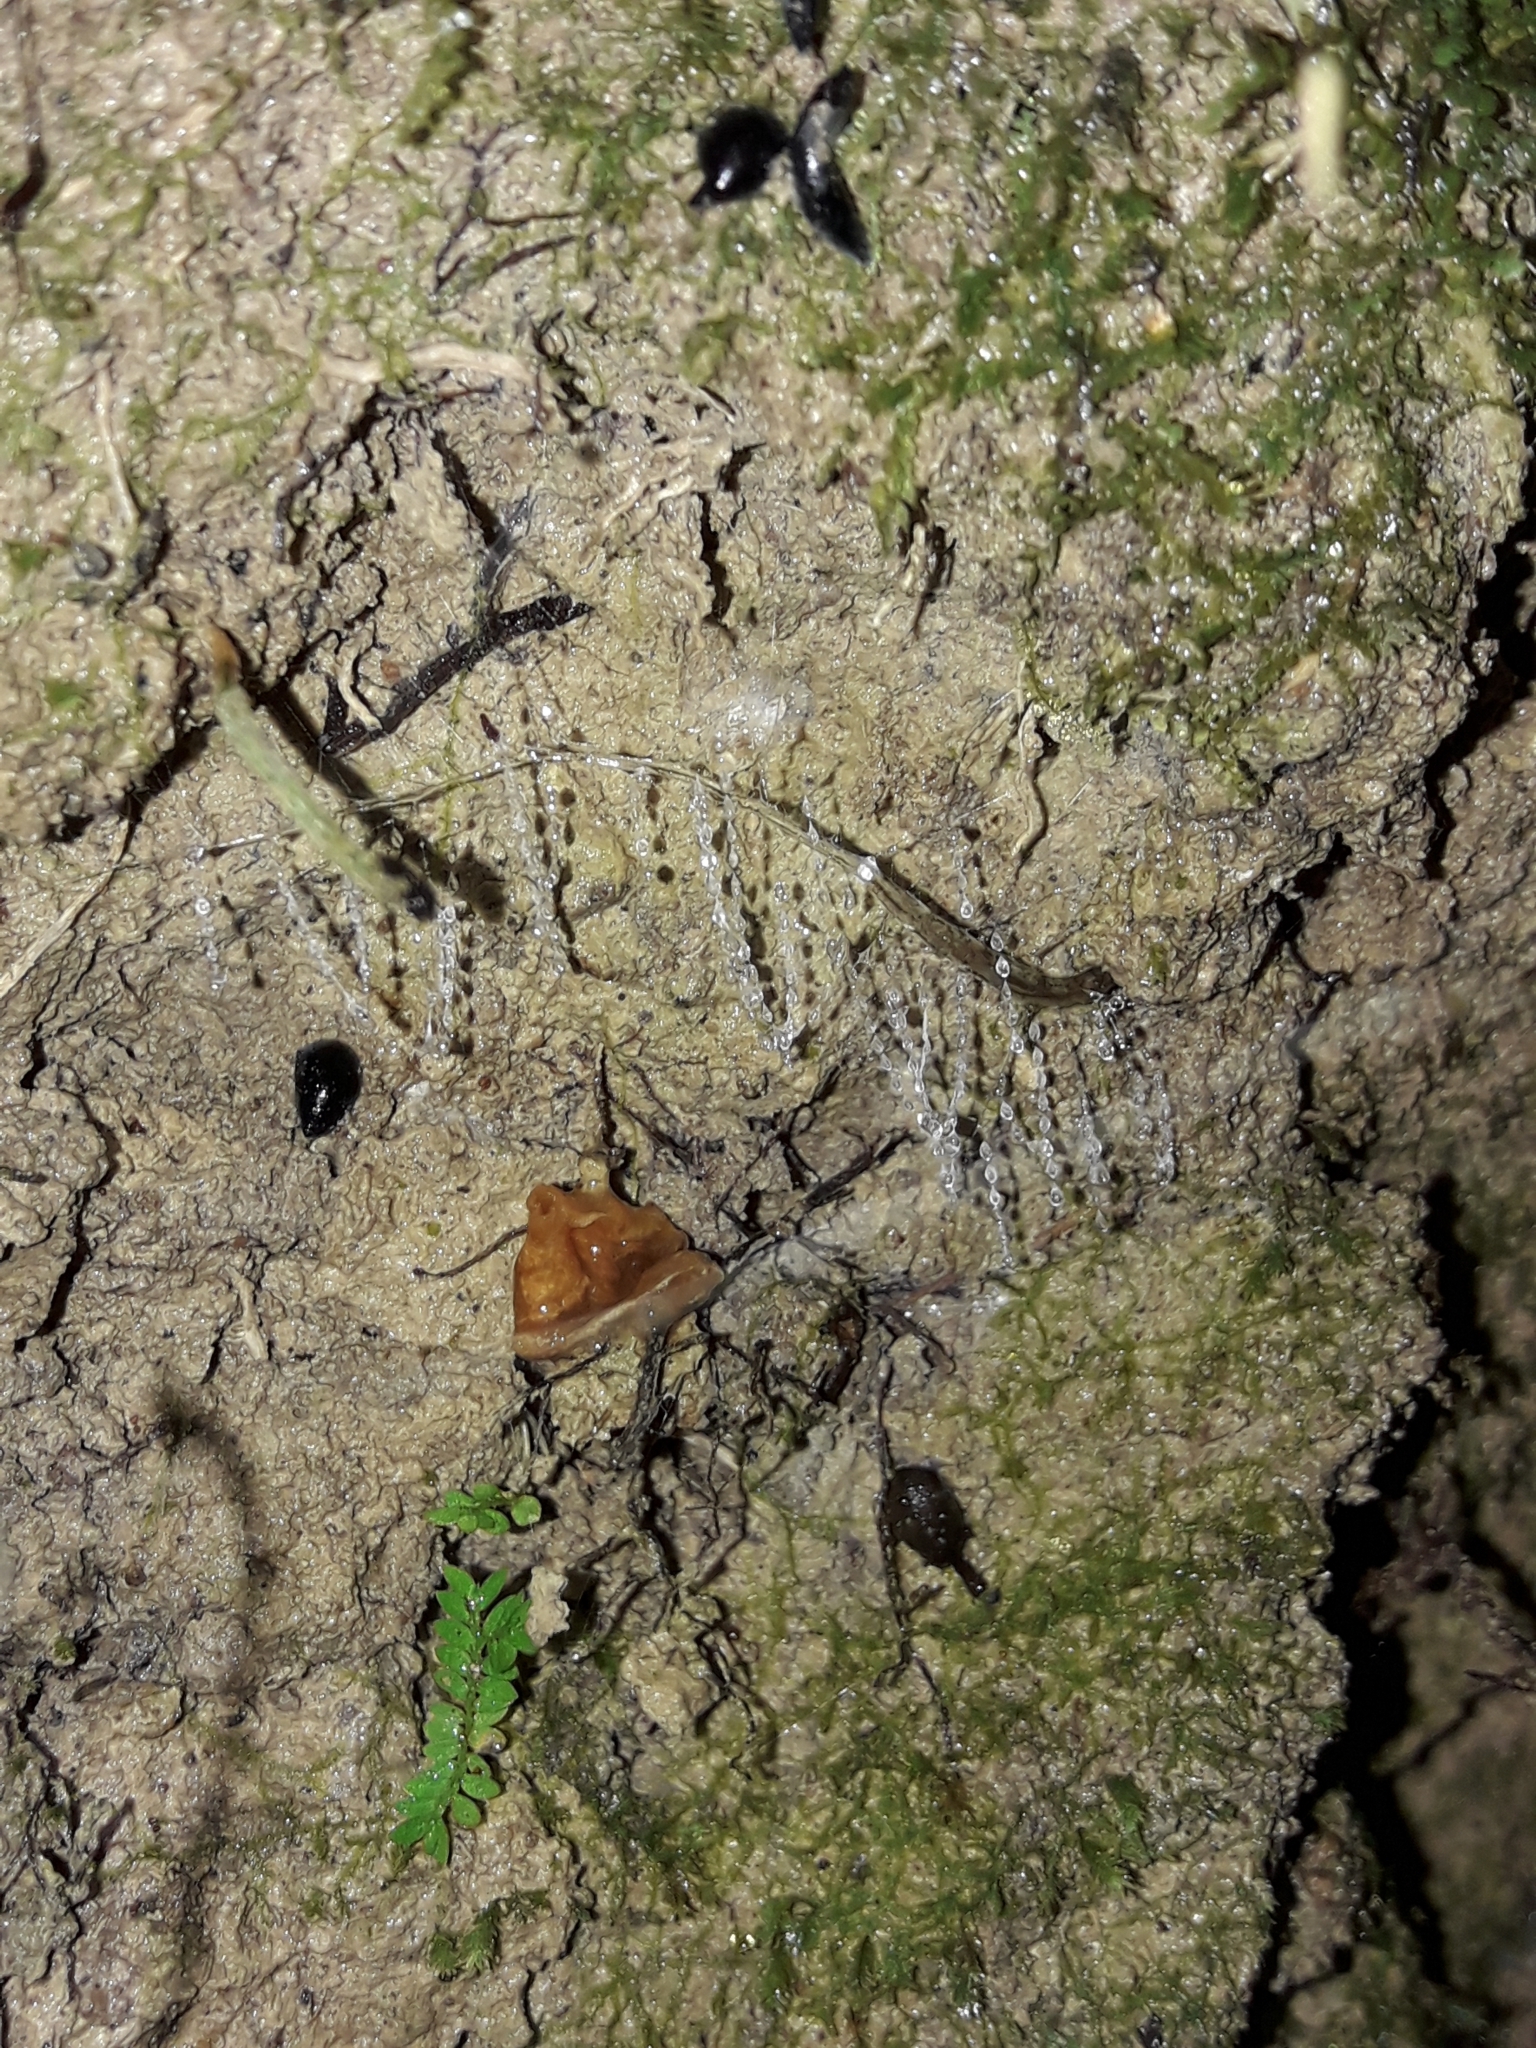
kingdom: Animalia
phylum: Arthropoda
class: Insecta
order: Diptera
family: Keroplatidae
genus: Arachnocampa
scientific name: Arachnocampa luminosa
